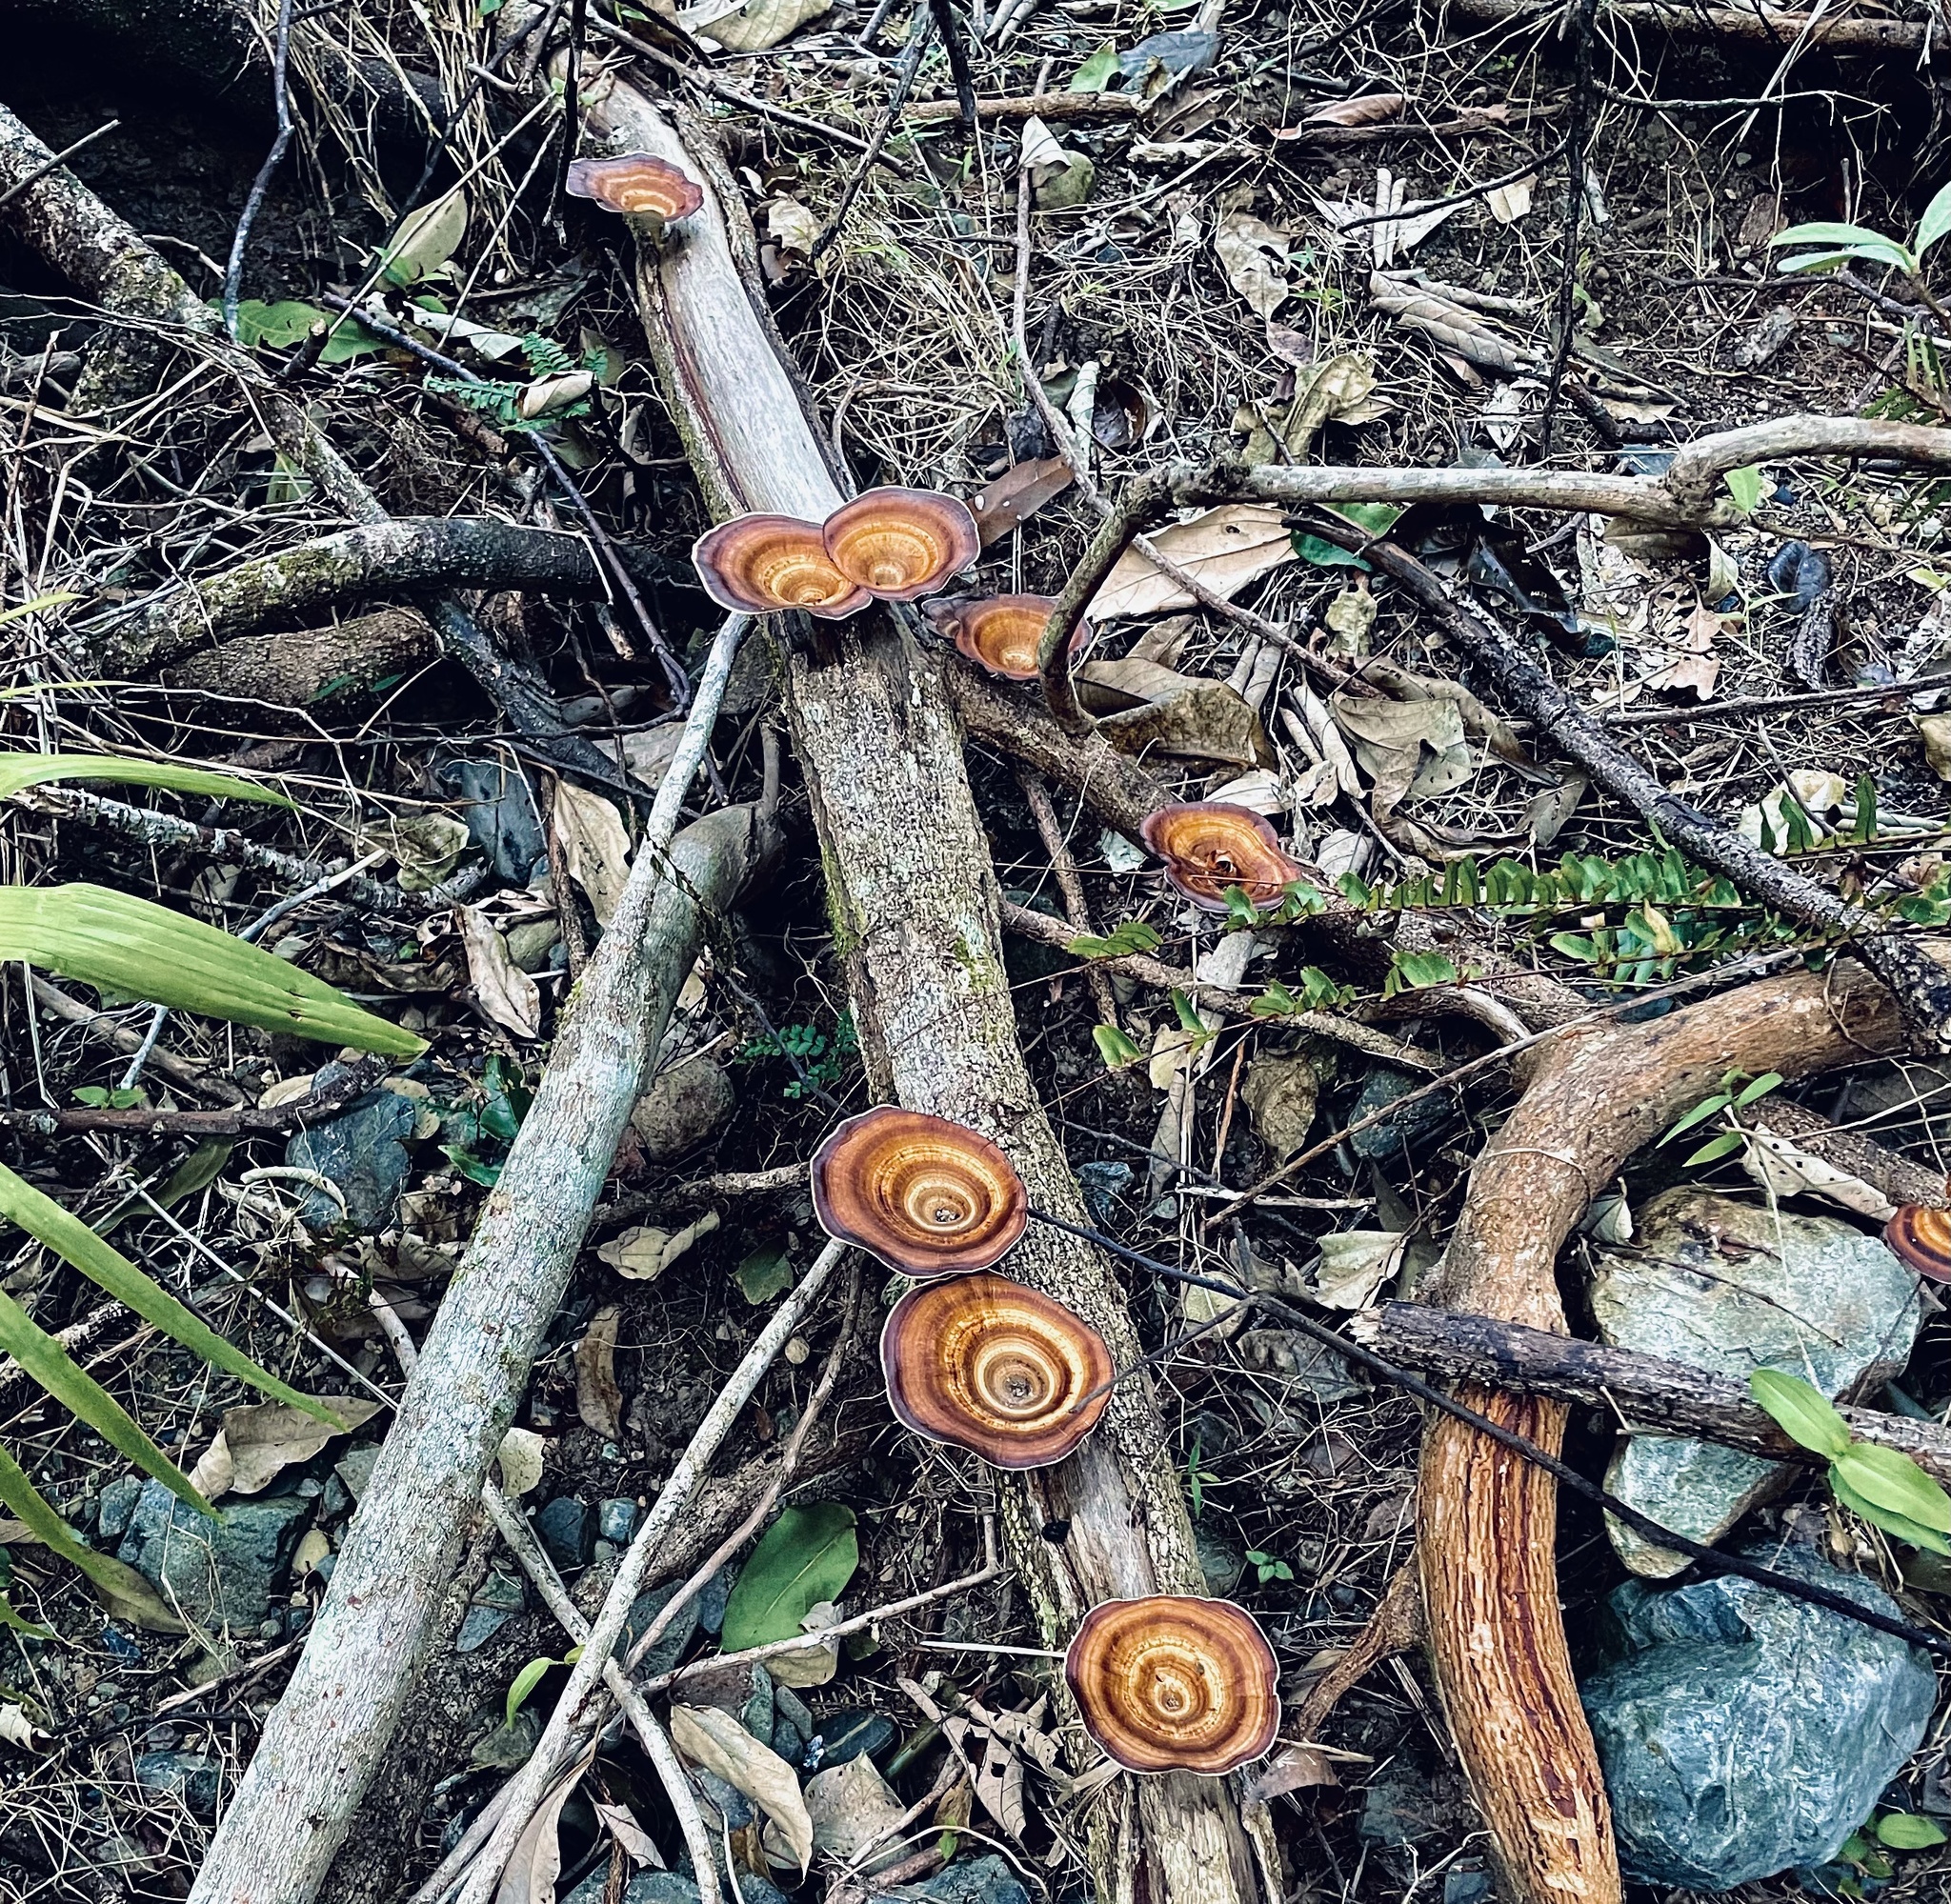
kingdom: Fungi
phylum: Basidiomycota
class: Agaricomycetes
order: Polyporales
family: Polyporaceae
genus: Microporus
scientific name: Microporus xanthopus
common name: Yellow-stemmed micropore
